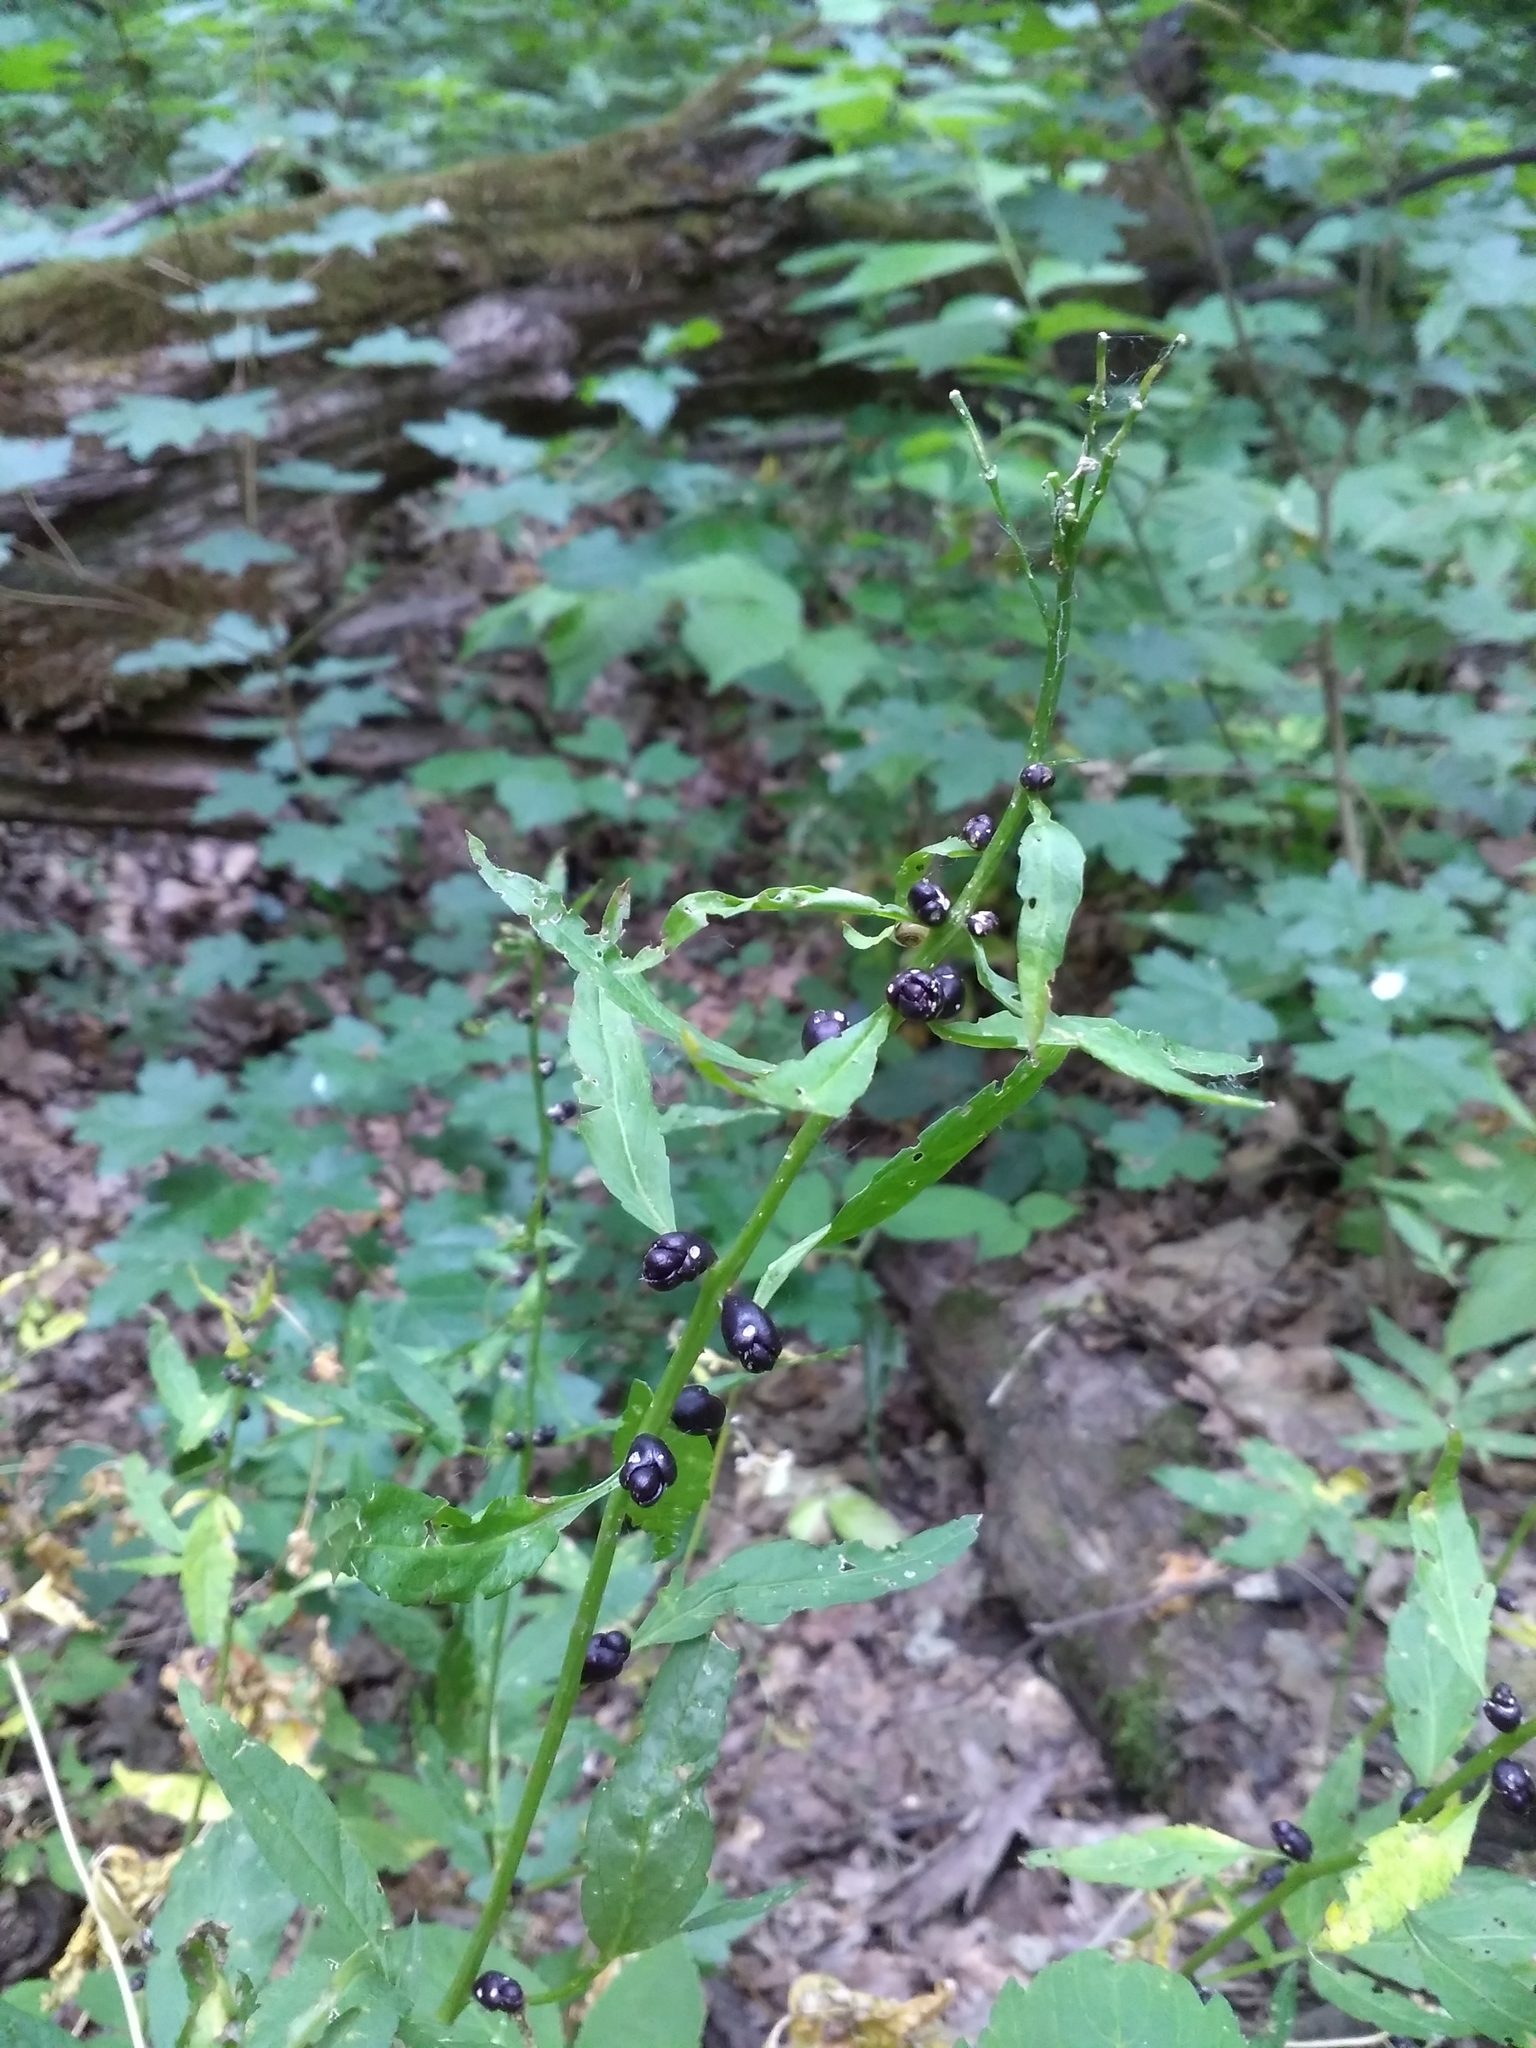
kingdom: Plantae
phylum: Tracheophyta
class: Magnoliopsida
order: Brassicales
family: Brassicaceae
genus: Cardamine
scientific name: Cardamine bulbifera
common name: Coralroot bittercress
